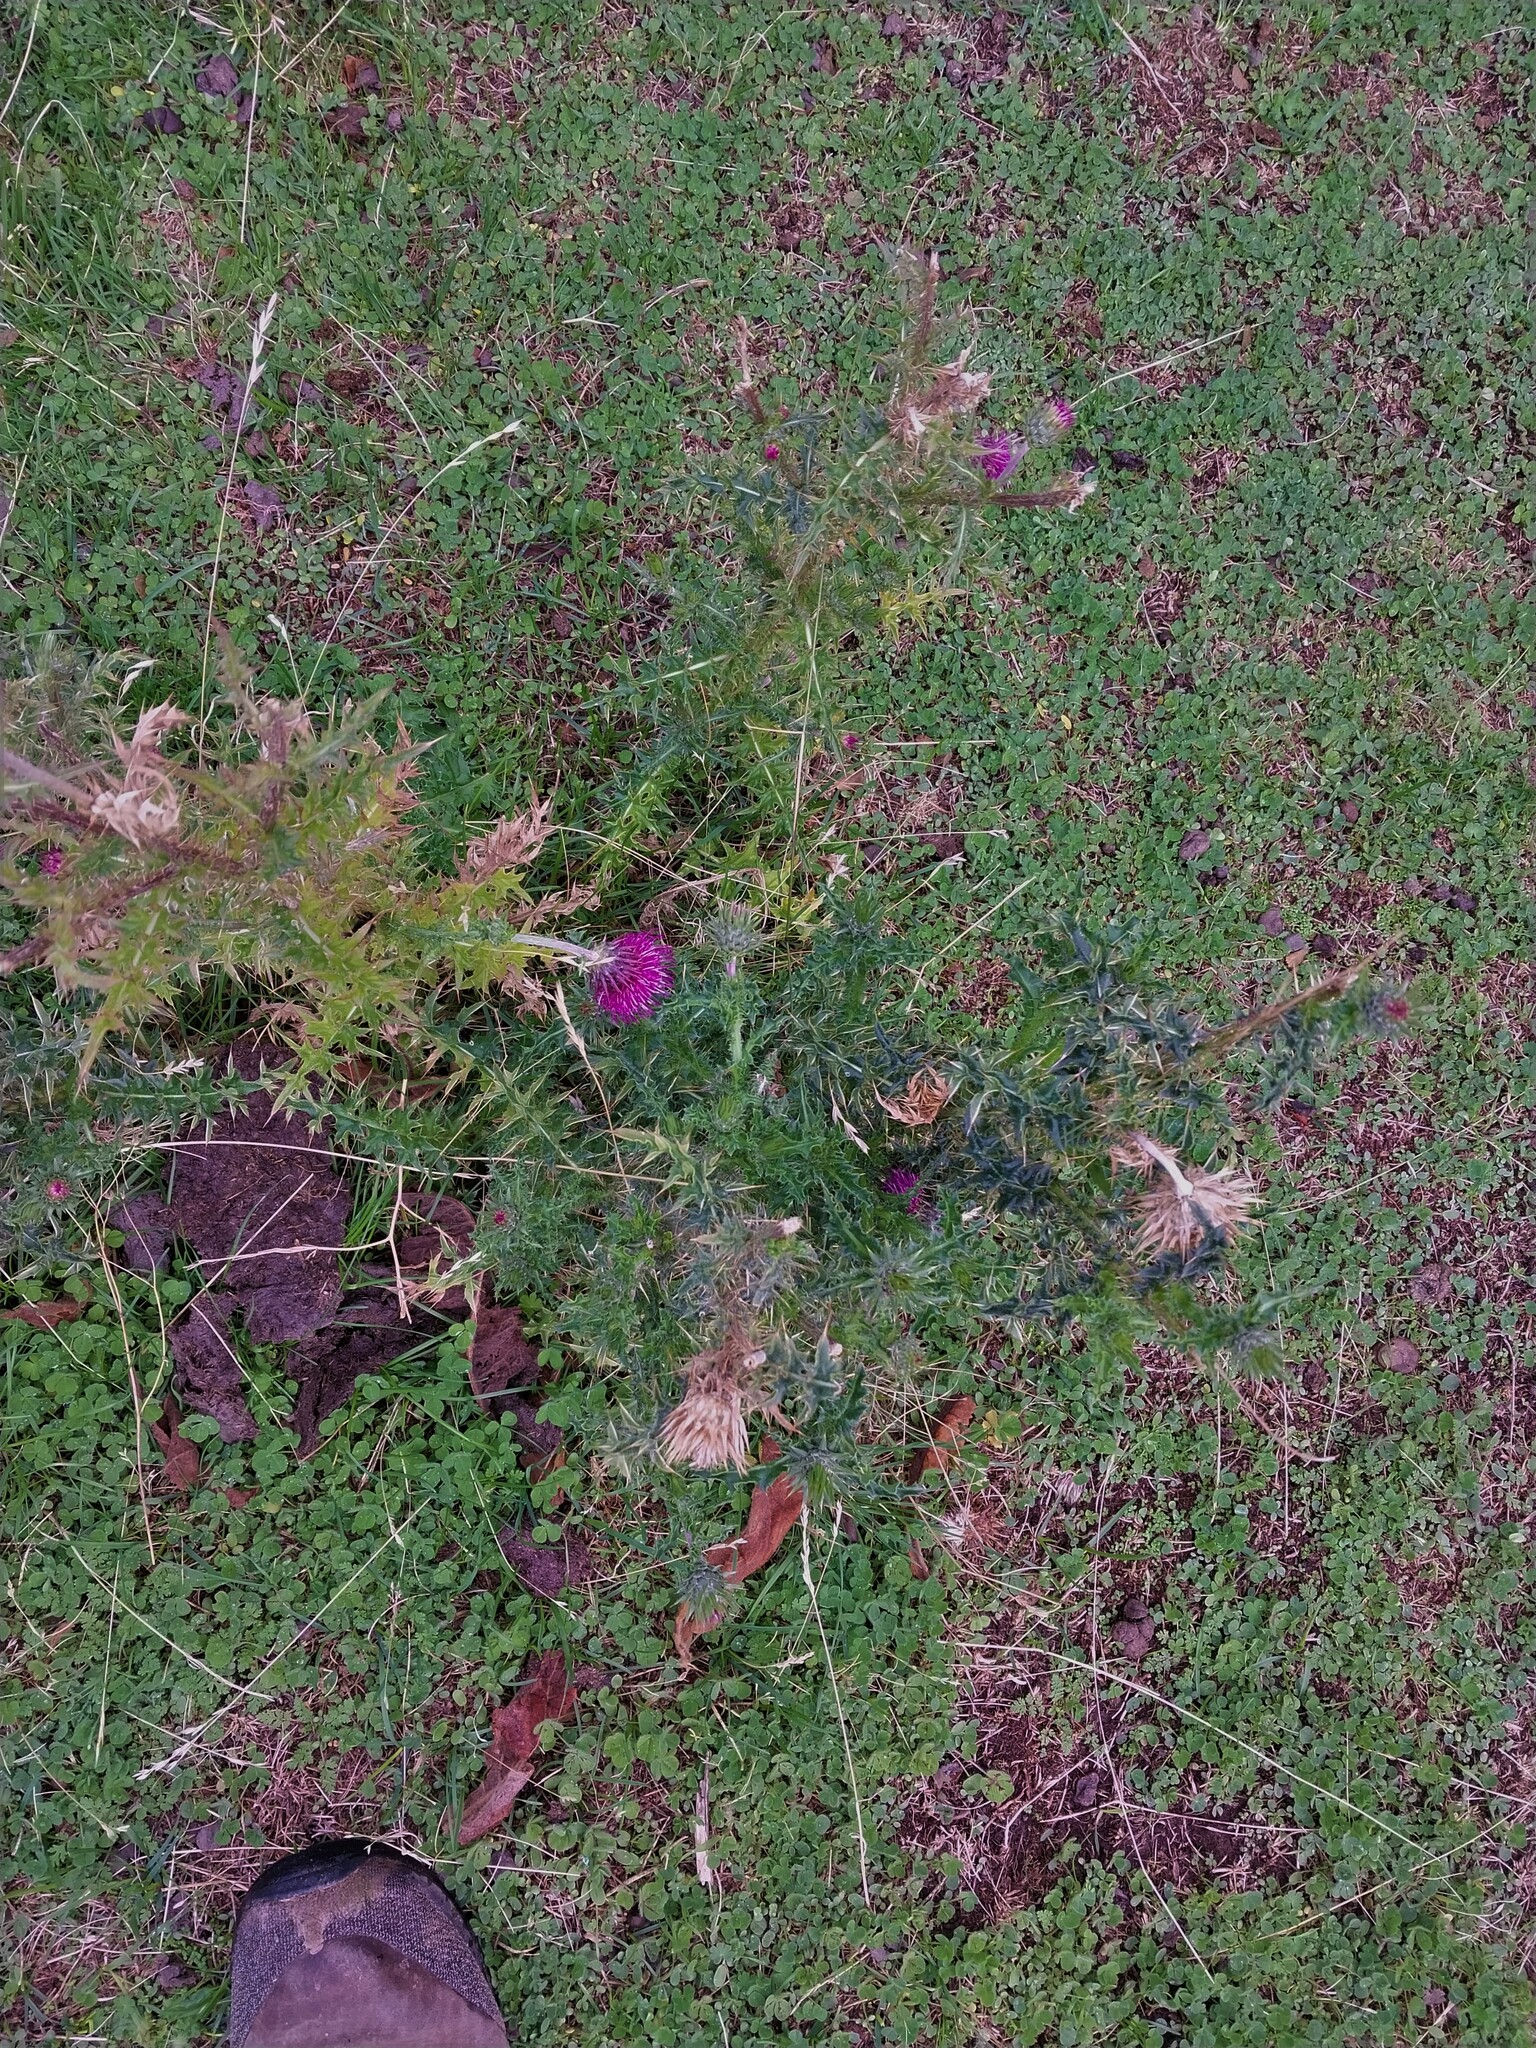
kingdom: Plantae
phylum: Tracheophyta
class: Magnoliopsida
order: Asterales
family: Asteraceae
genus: Carduus
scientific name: Carduus nutans
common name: Musk thistle
